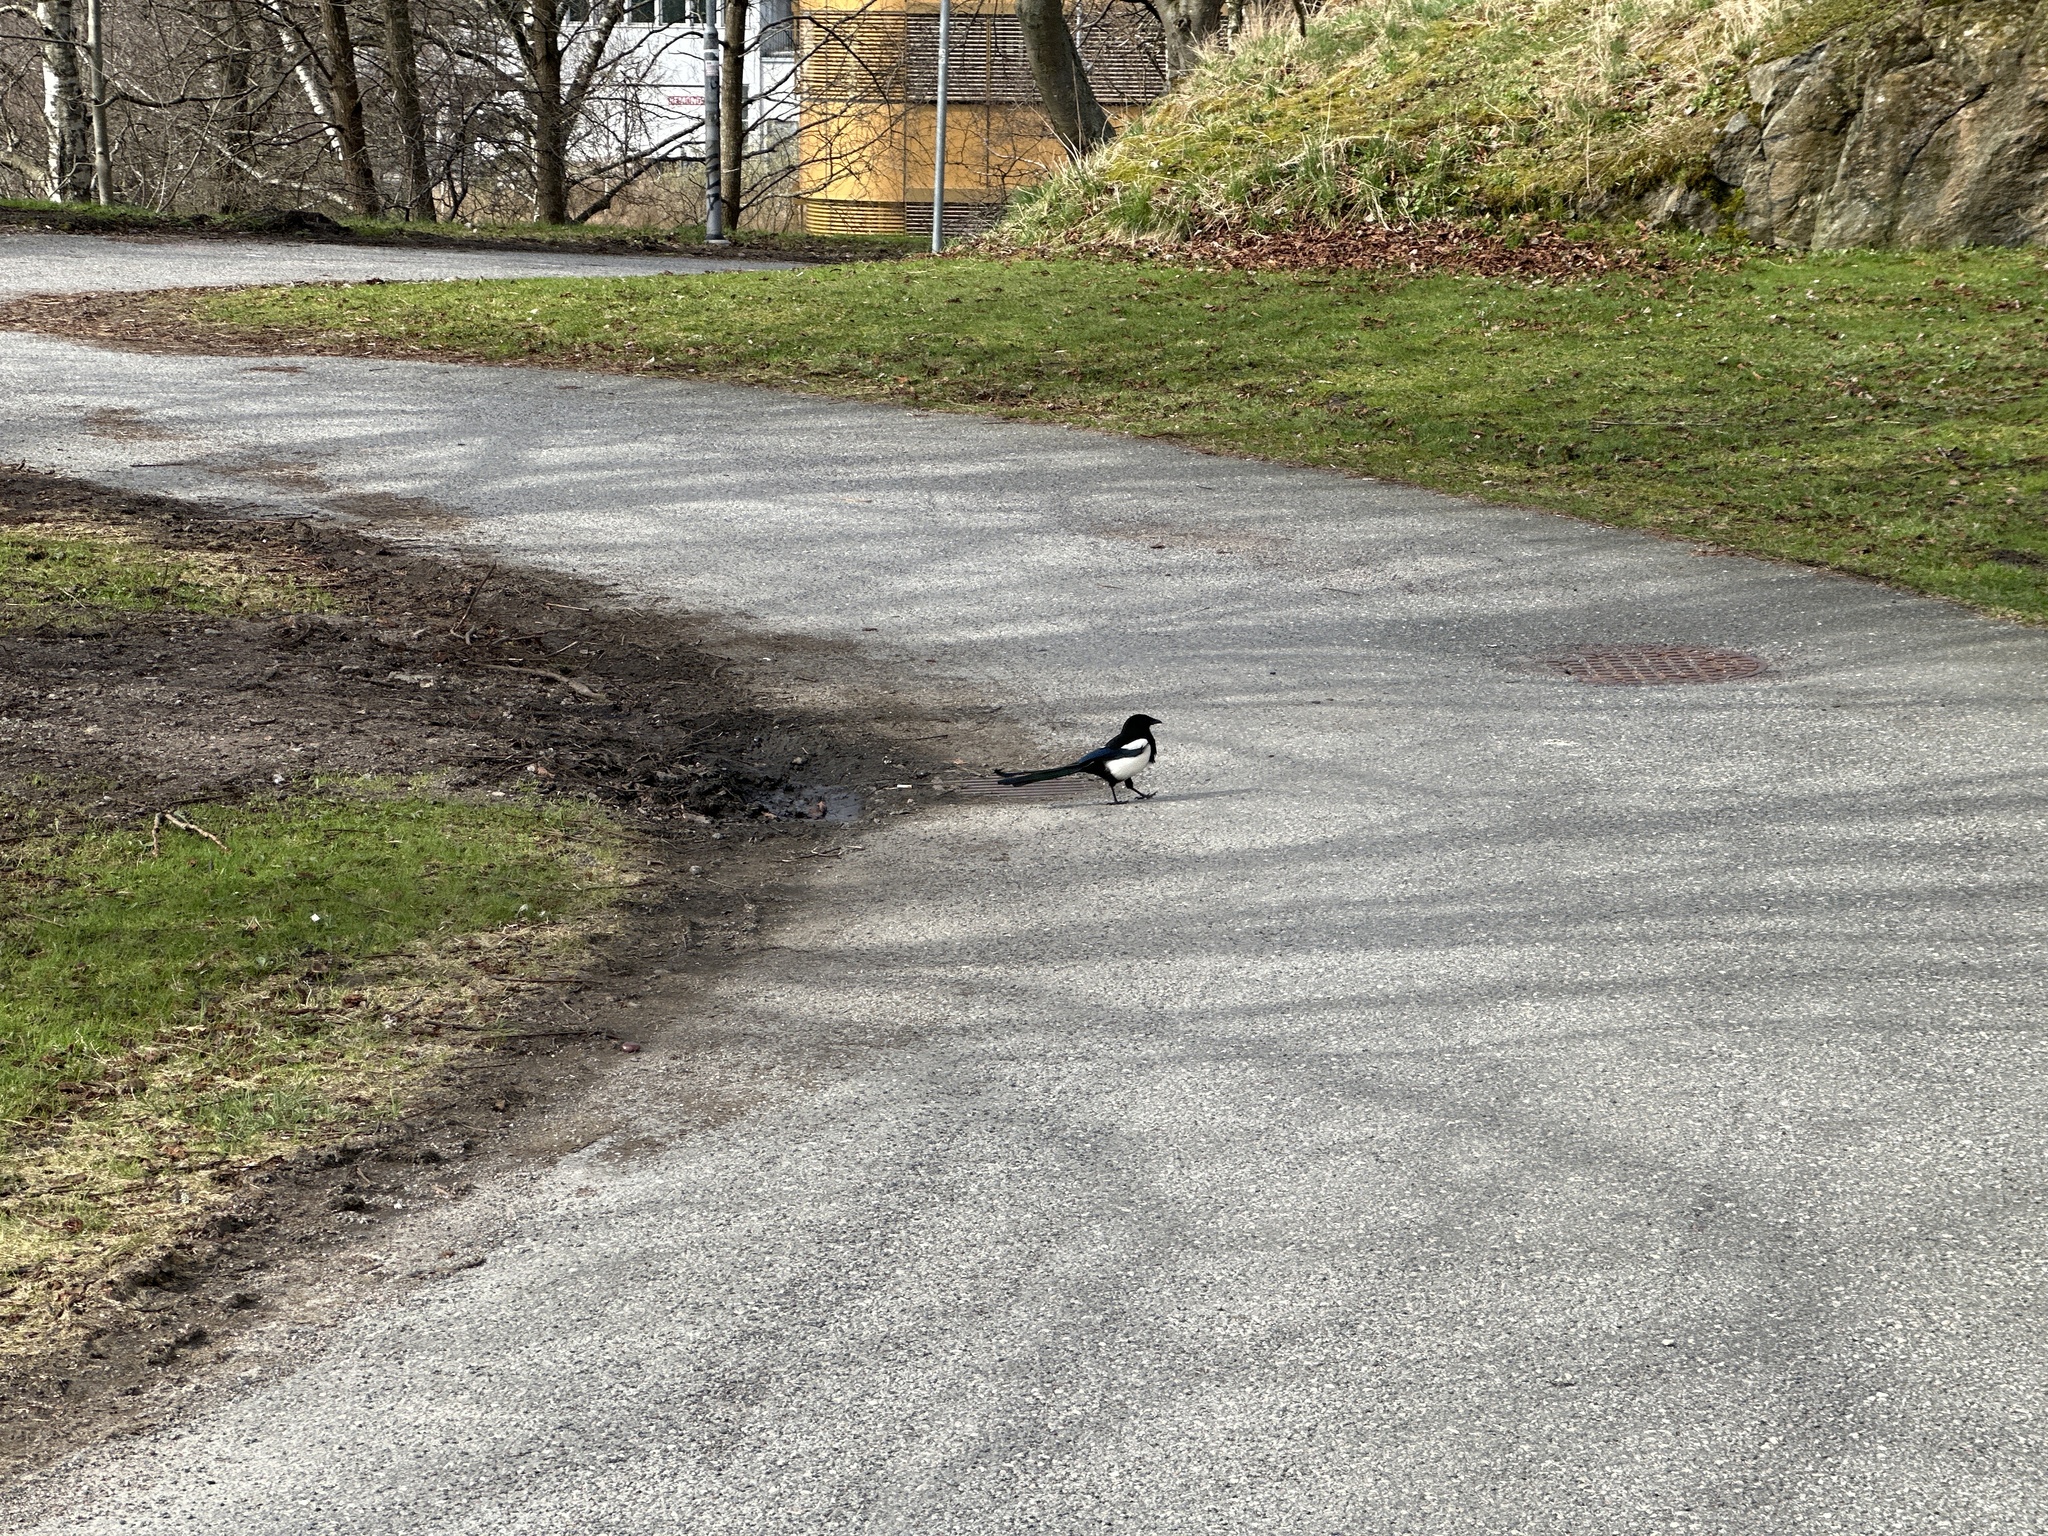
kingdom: Animalia
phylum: Chordata
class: Aves
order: Passeriformes
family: Corvidae
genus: Pica
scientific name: Pica pica
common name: Eurasian magpie
